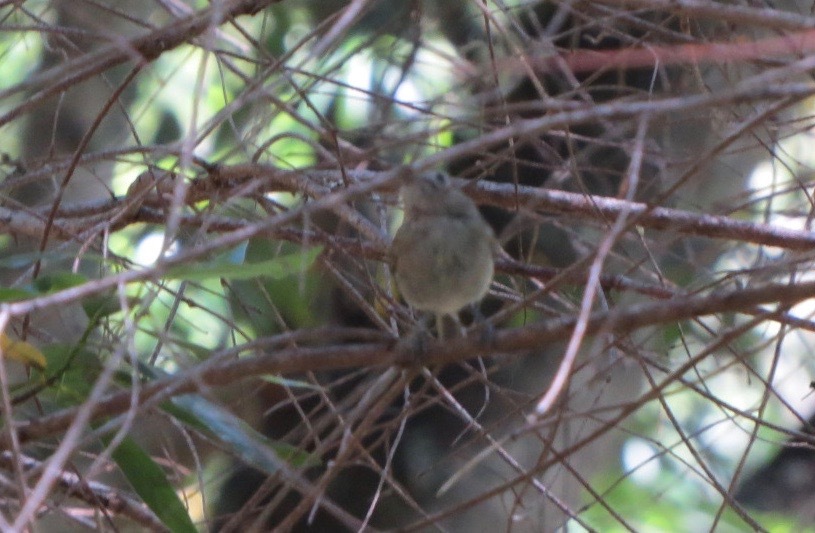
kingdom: Animalia
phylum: Chordata
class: Aves
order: Passeriformes
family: Vireonidae
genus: Vireo
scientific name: Vireo huttoni
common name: Hutton's vireo
